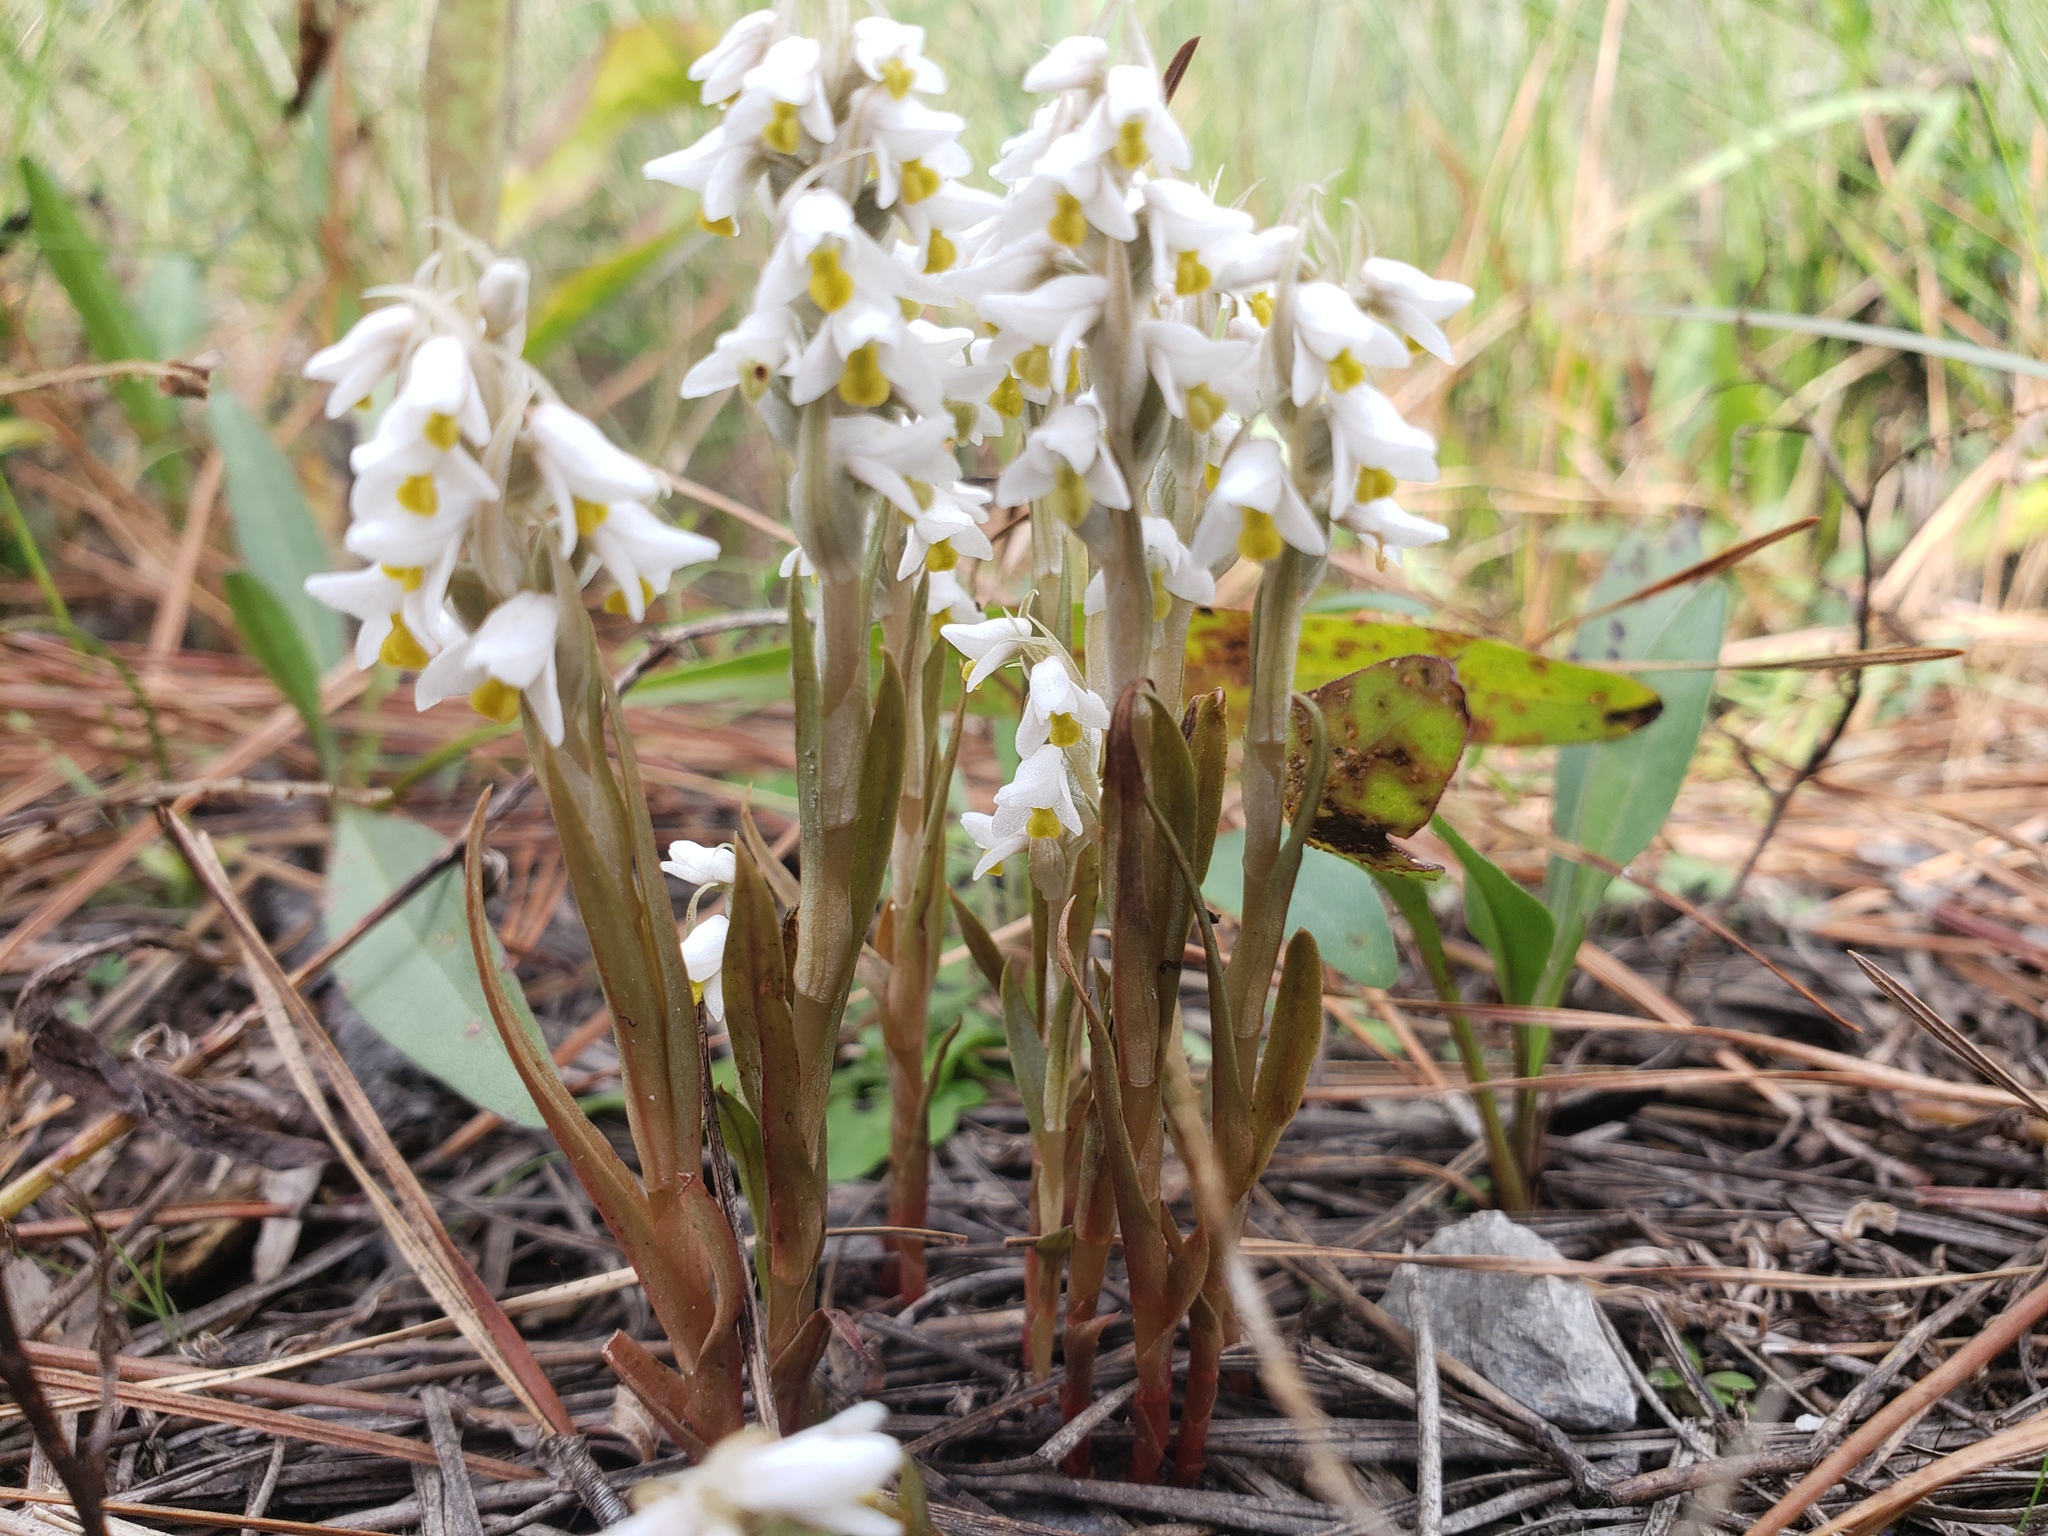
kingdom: Plantae
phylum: Tracheophyta
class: Liliopsida
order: Asparagales
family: Orchidaceae
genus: Zeuxine
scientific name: Zeuxine strateumatica
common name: Soldier's orchid
